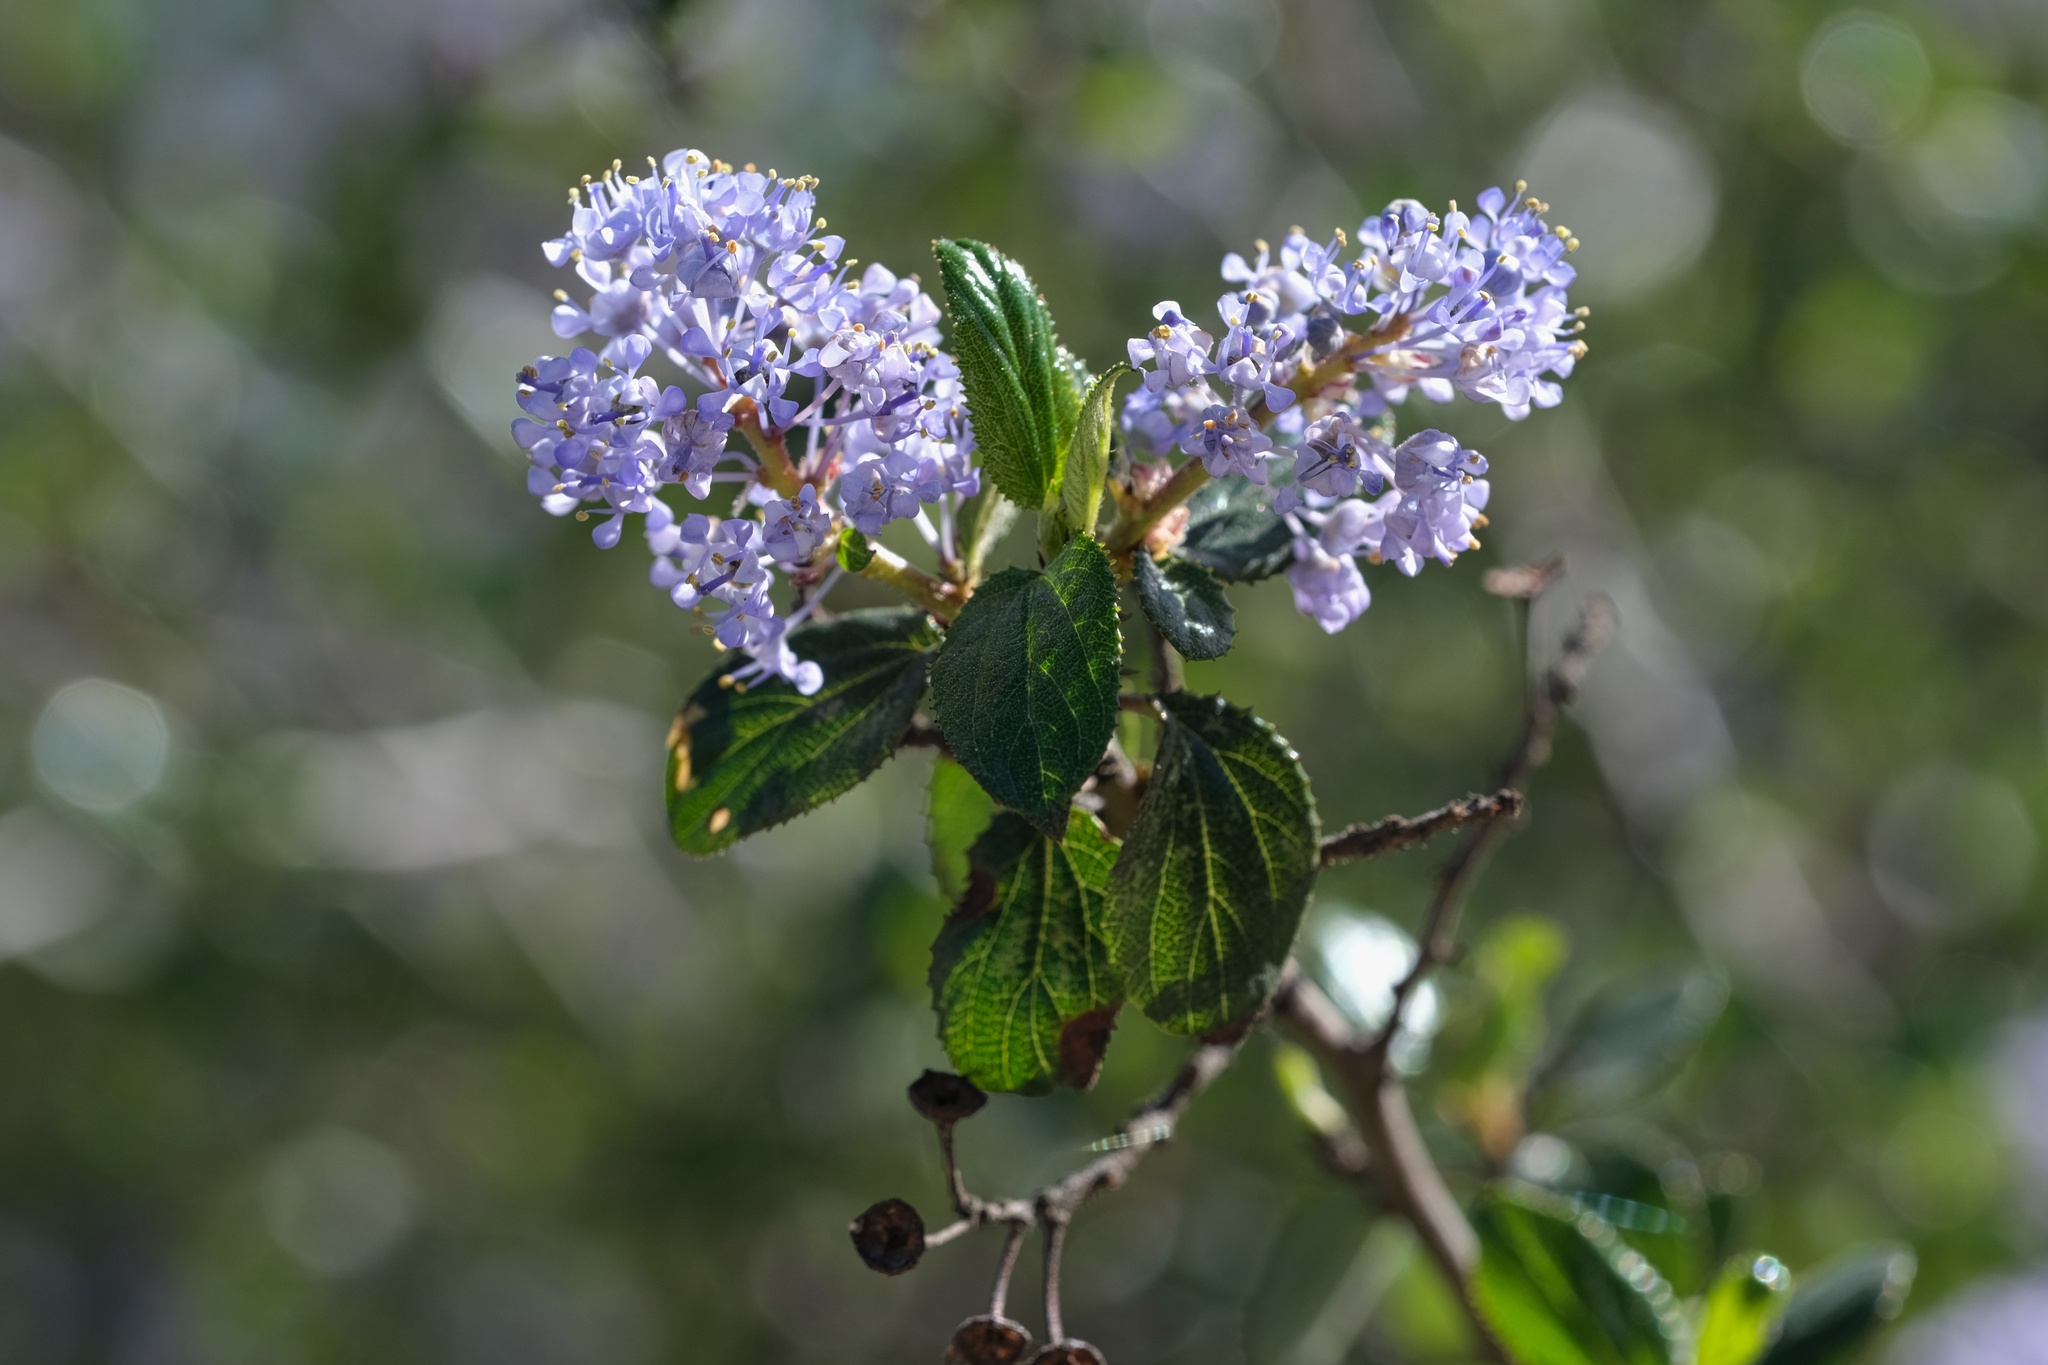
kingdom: Plantae
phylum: Tracheophyta
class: Magnoliopsida
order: Rosales
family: Rhamnaceae
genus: Ceanothus
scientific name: Ceanothus oliganthus
